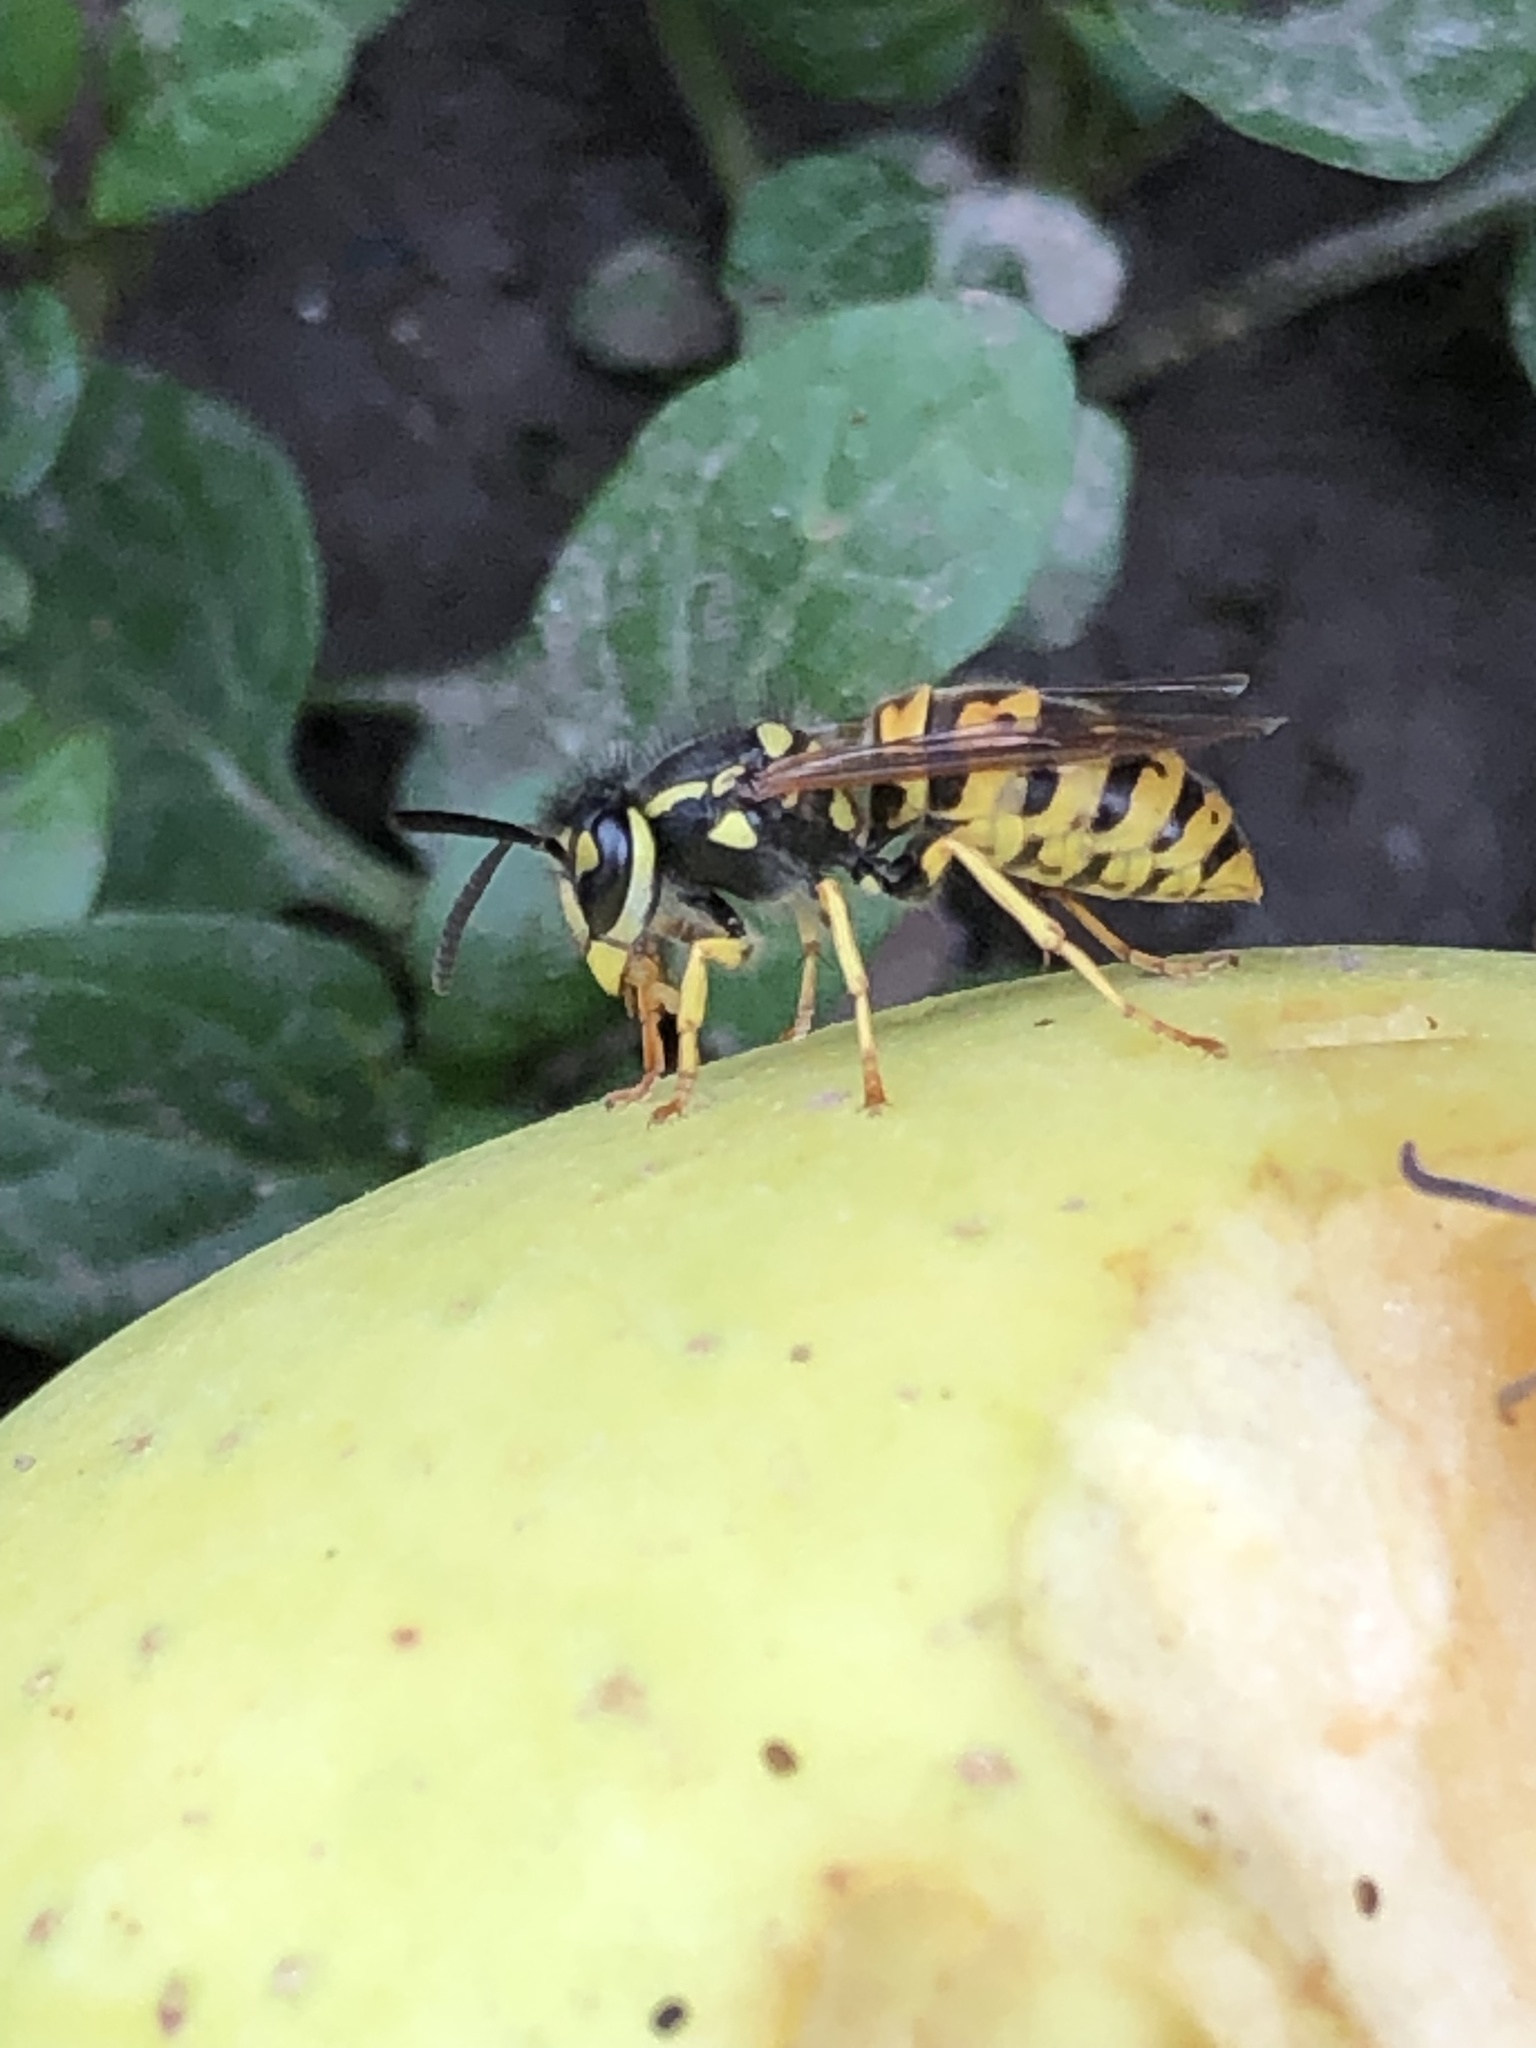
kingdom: Animalia
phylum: Arthropoda
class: Insecta
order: Hymenoptera
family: Vespidae
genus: Vespula
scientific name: Vespula germanica
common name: German wasp
